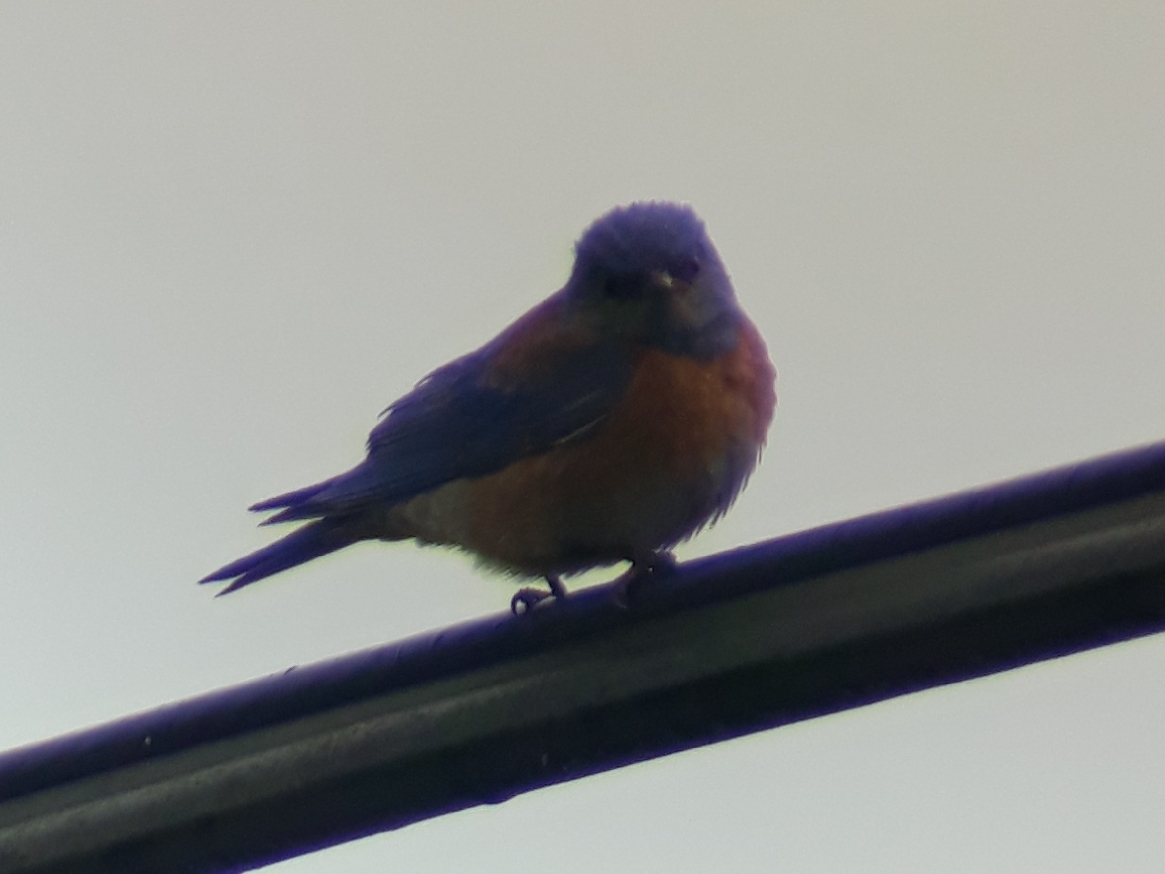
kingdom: Animalia
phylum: Chordata
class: Aves
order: Passeriformes
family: Turdidae
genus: Sialia
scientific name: Sialia mexicana
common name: Western bluebird
